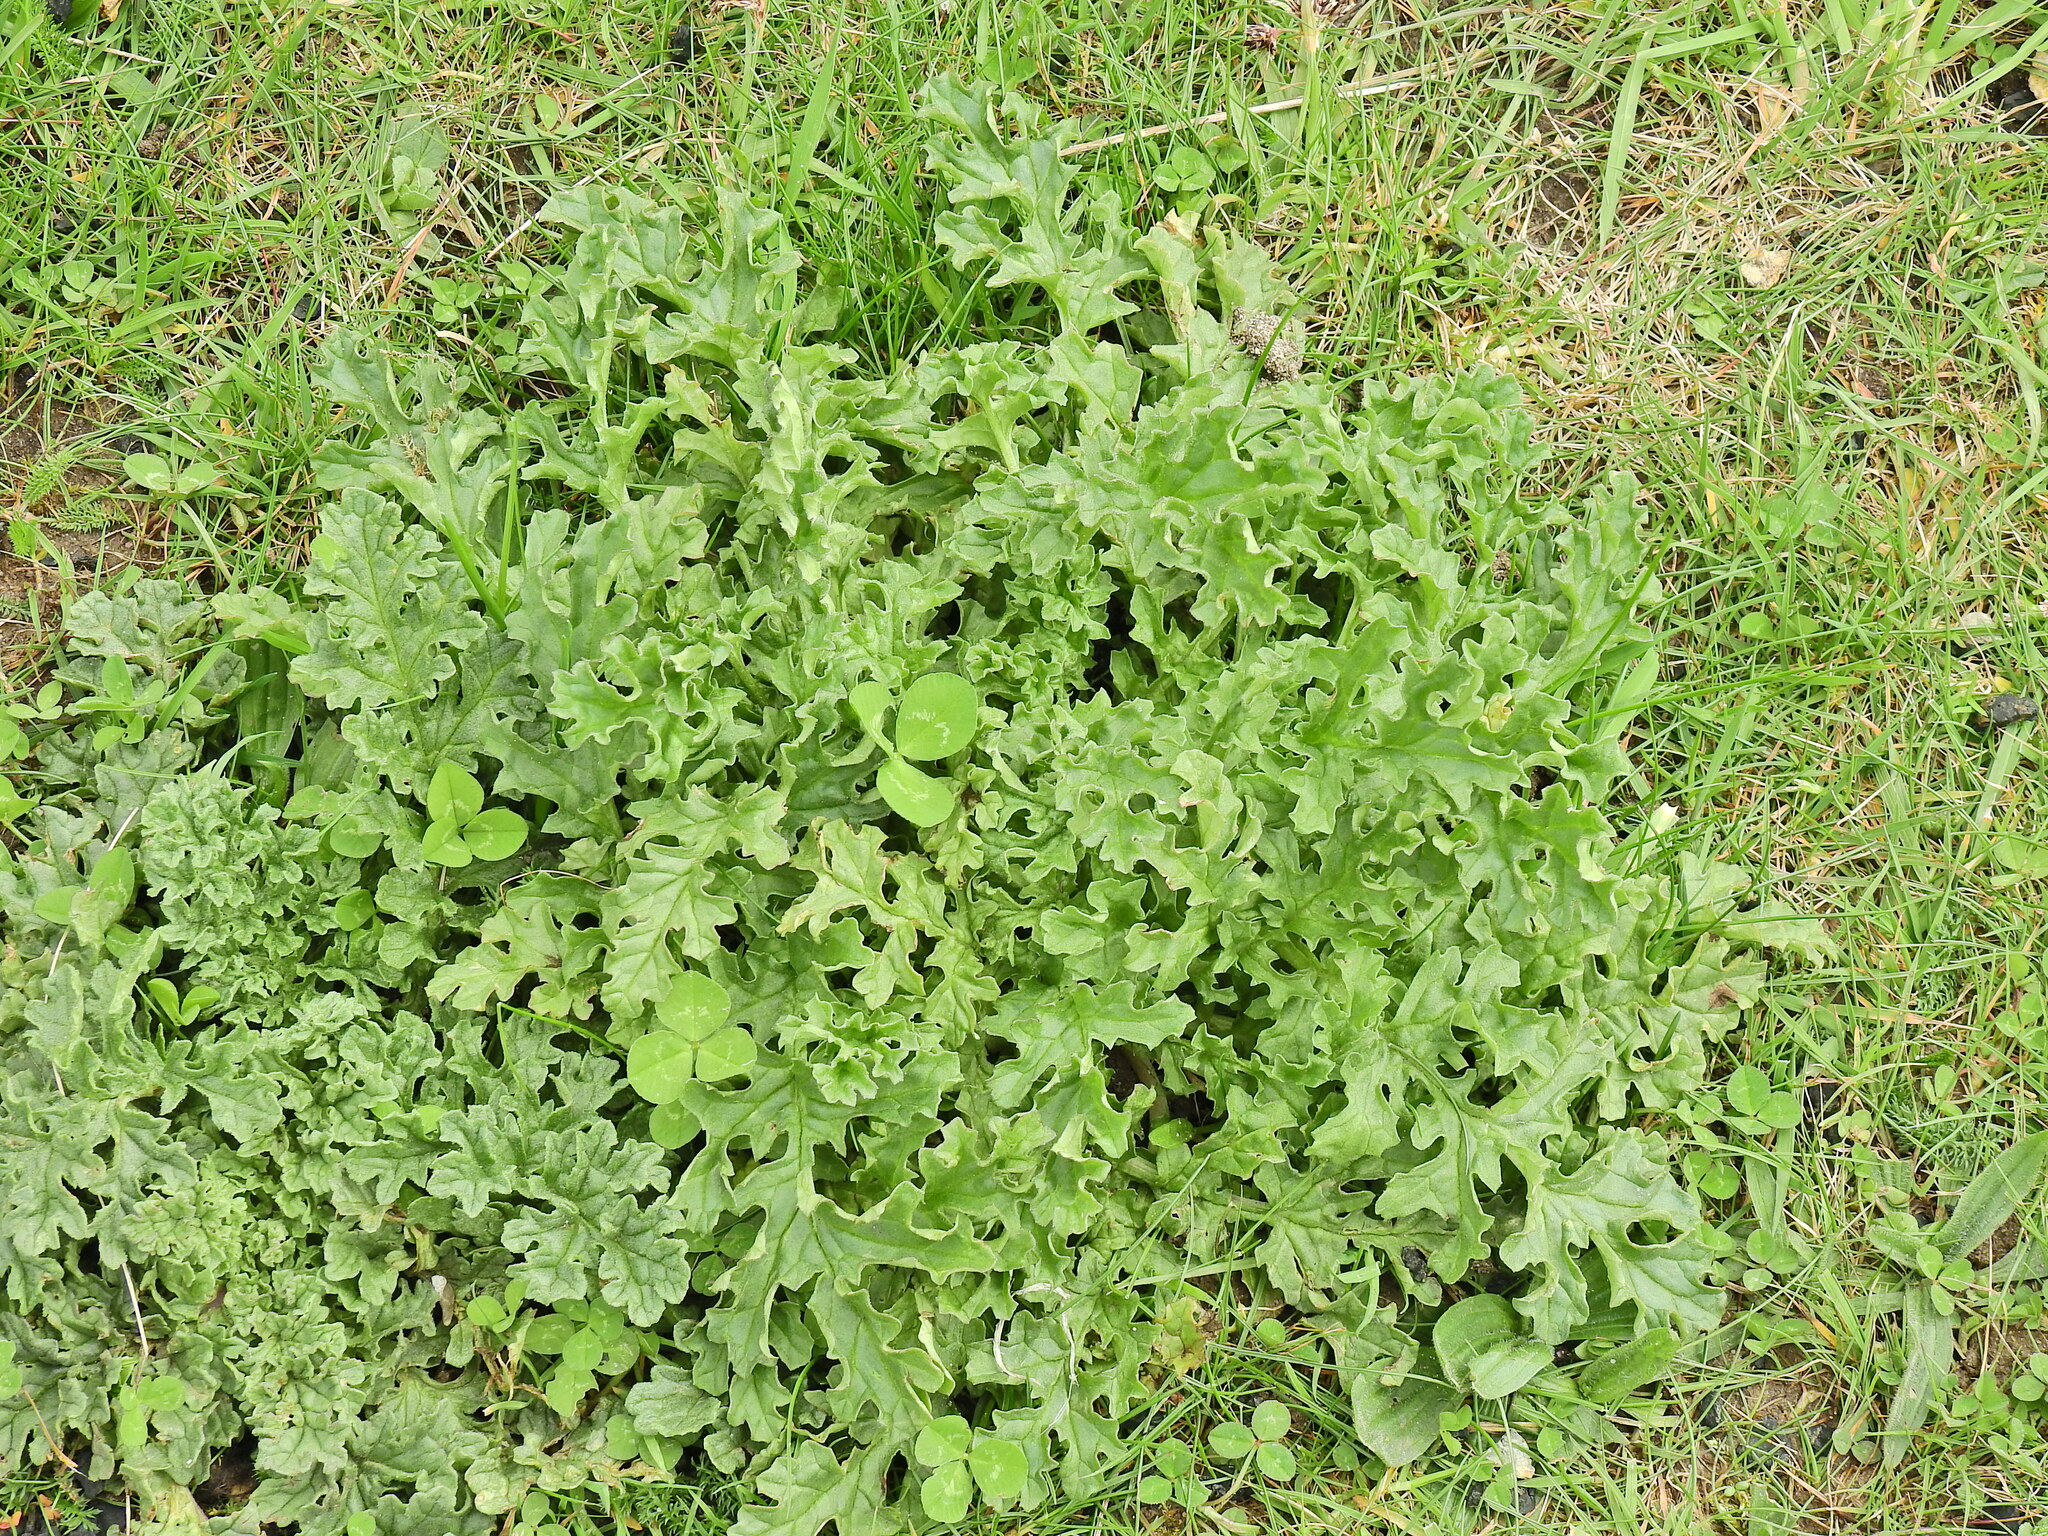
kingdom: Plantae
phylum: Tracheophyta
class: Magnoliopsida
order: Asterales
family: Asteraceae
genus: Jacobaea
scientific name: Jacobaea vulgaris
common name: Stinking willie
